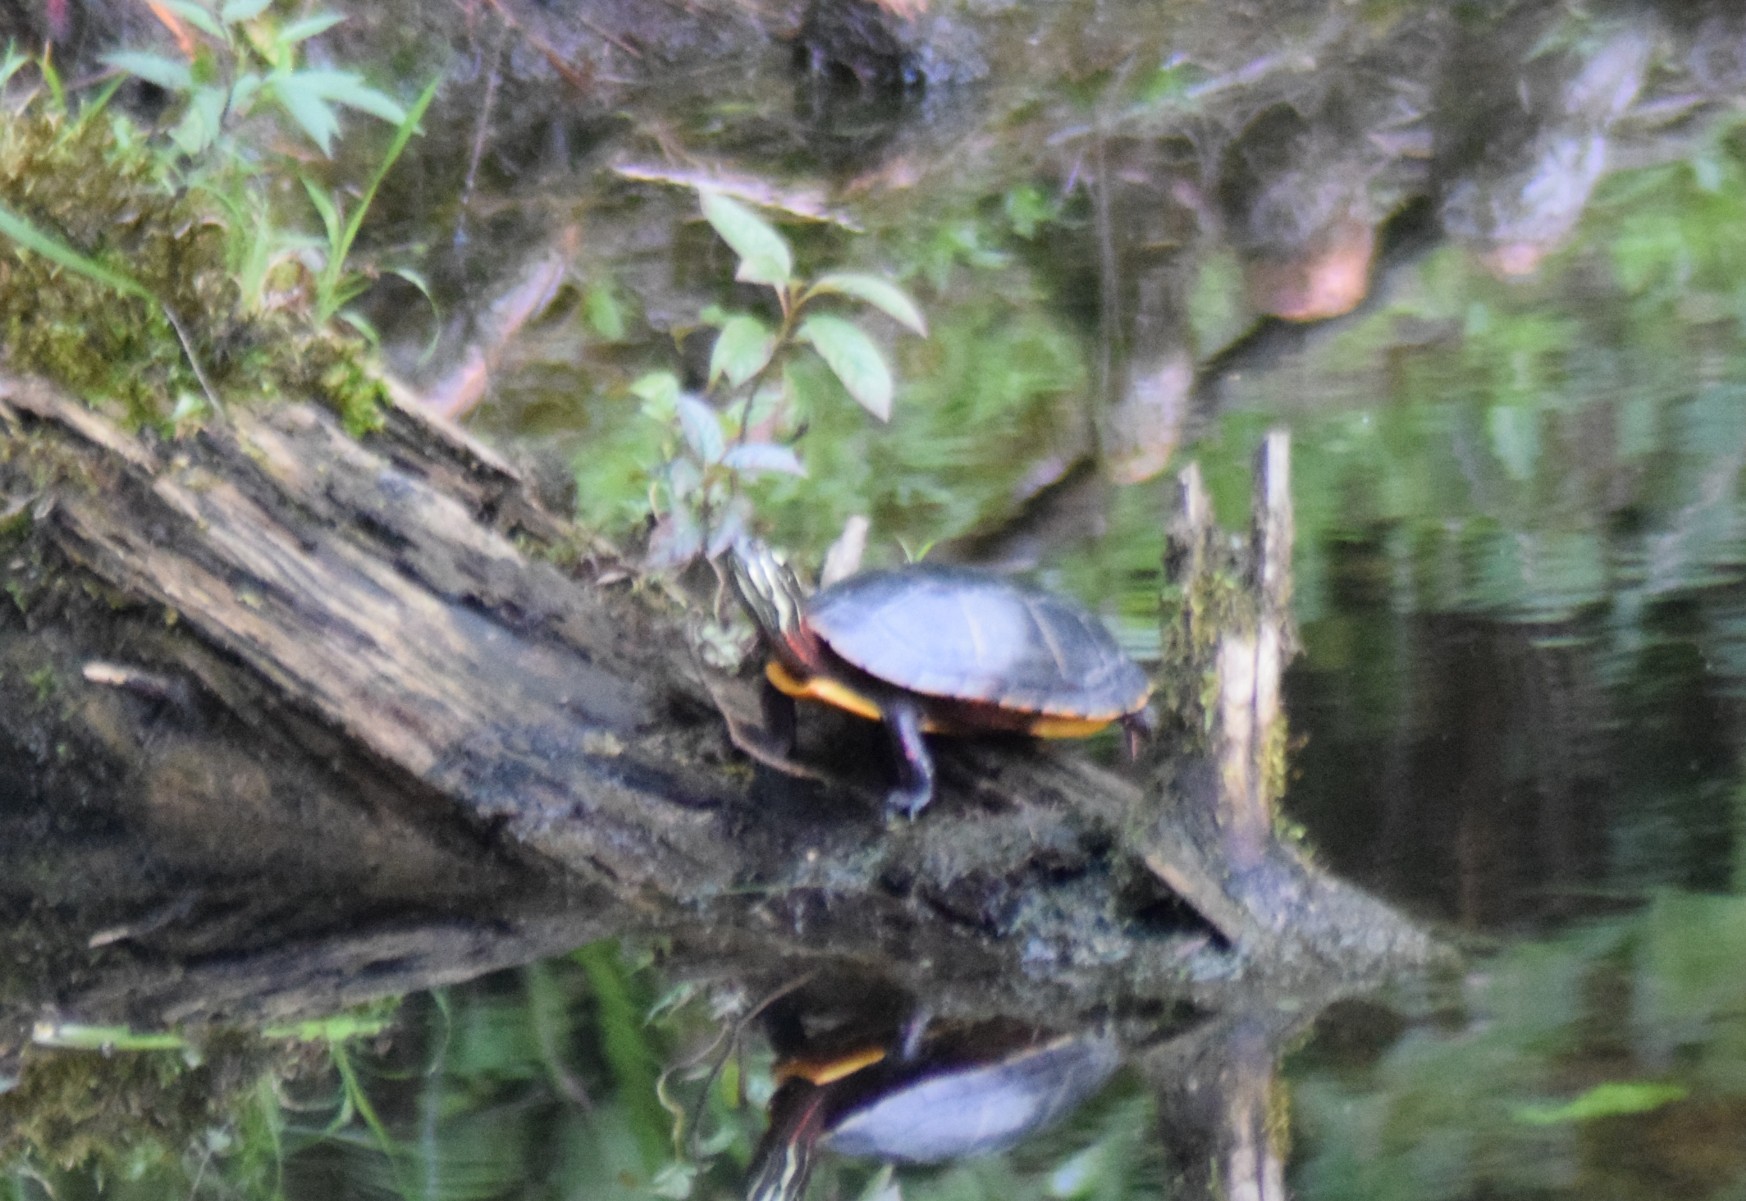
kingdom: Animalia
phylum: Chordata
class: Testudines
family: Emydidae
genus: Chrysemys
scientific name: Chrysemys picta
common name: Painted turtle
